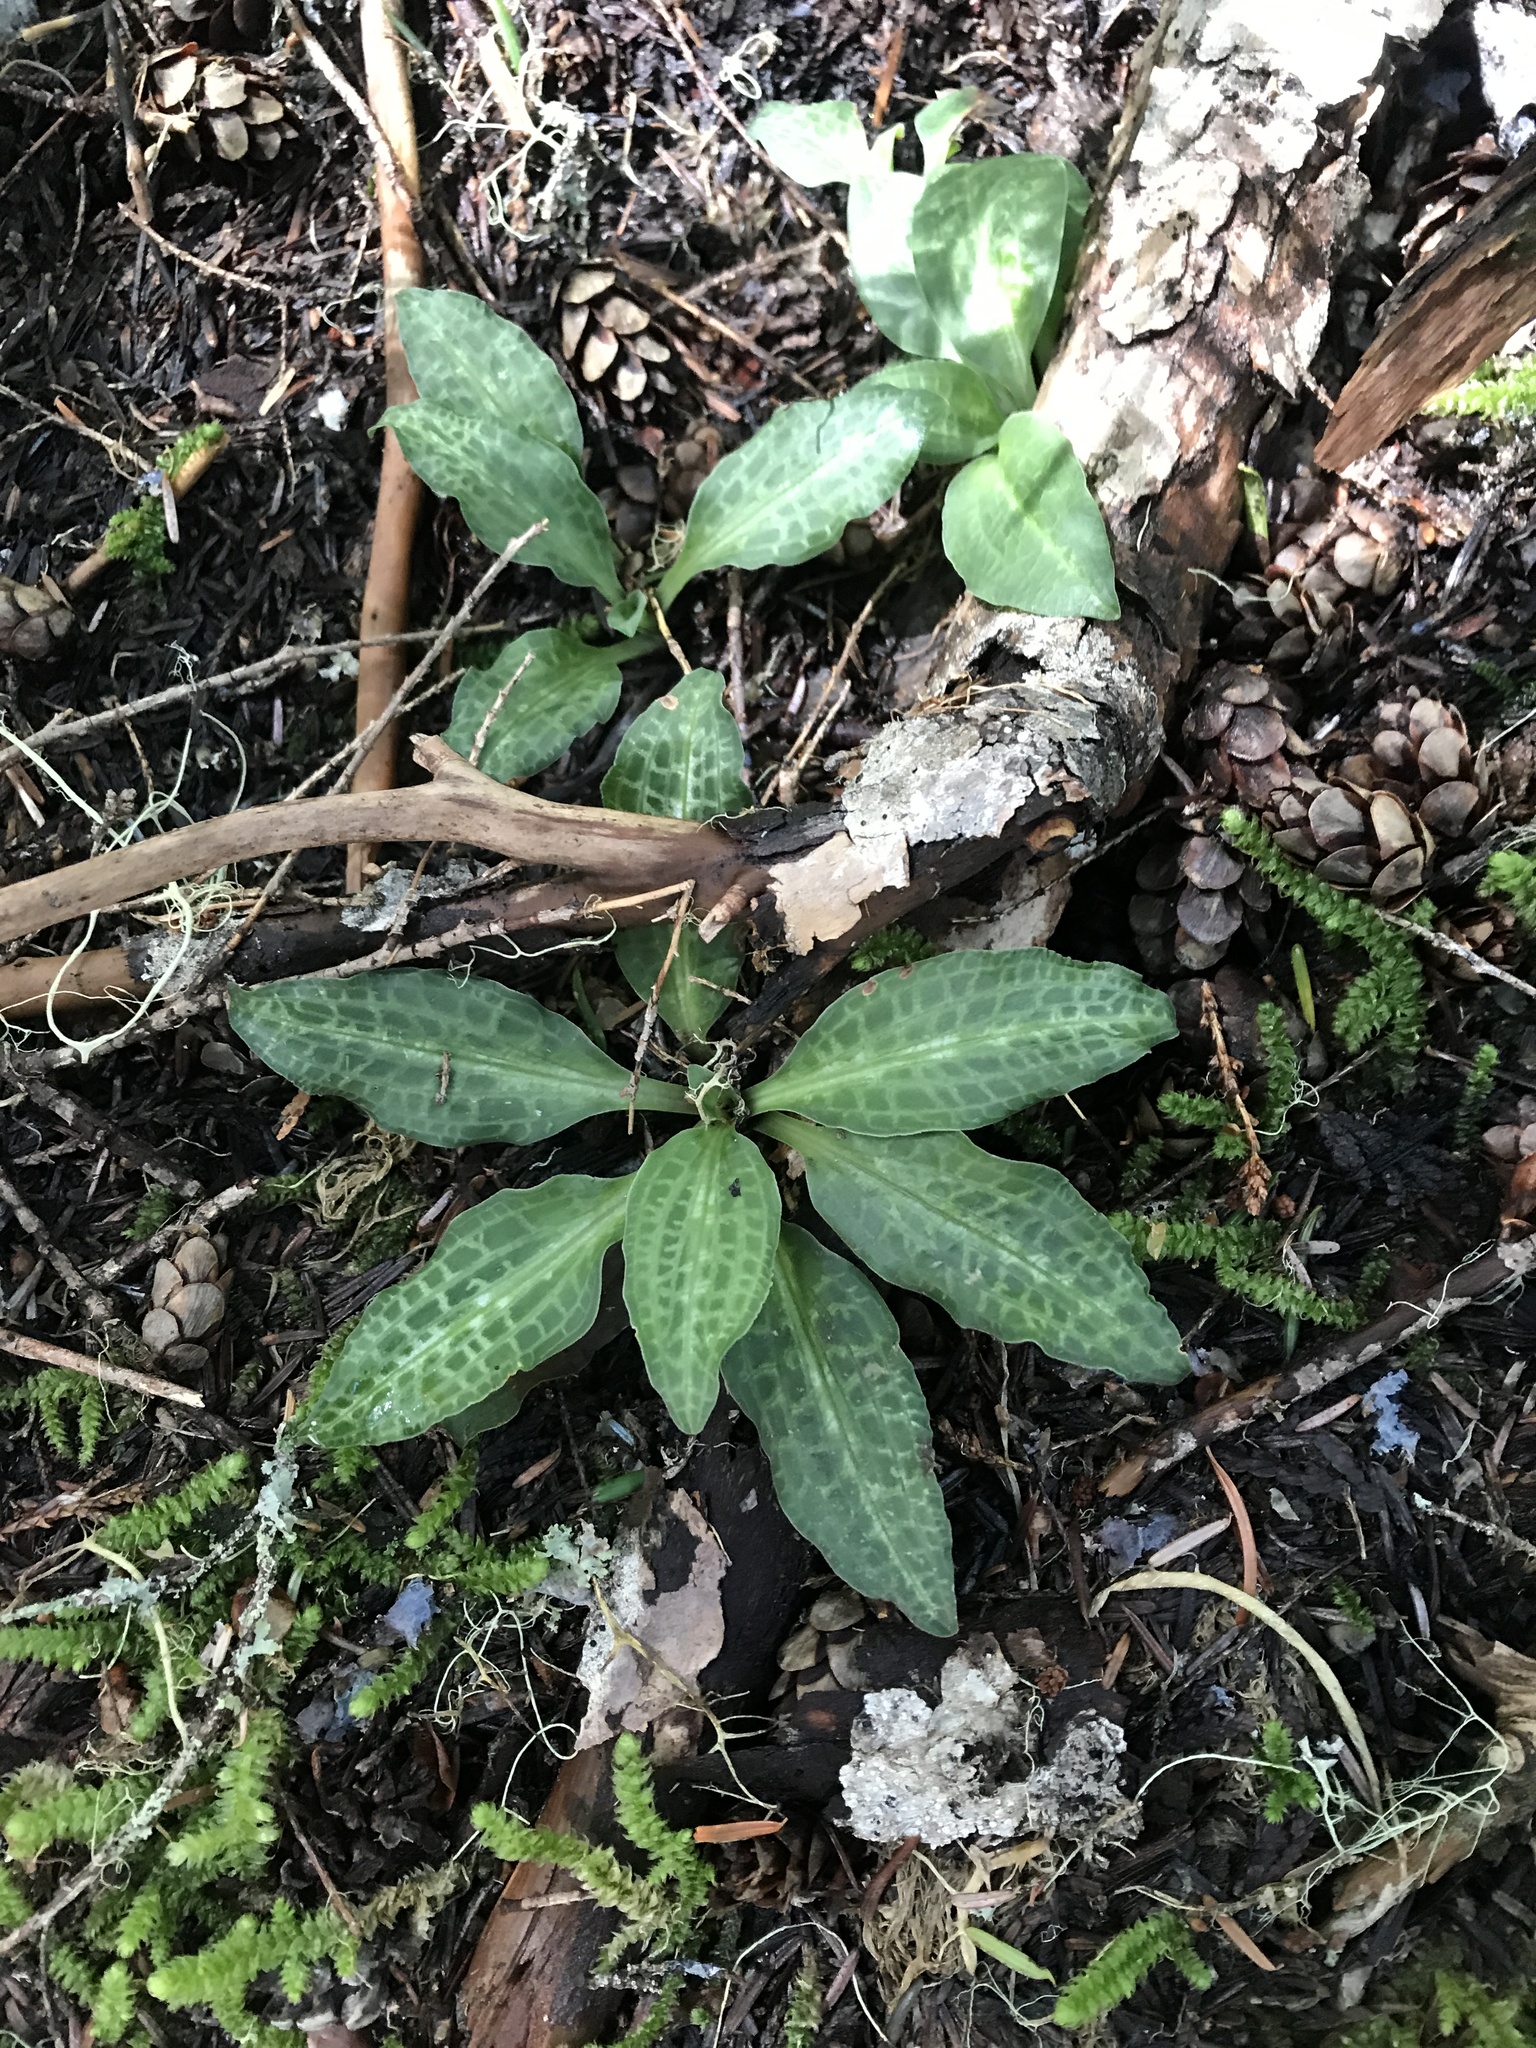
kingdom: Plantae
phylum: Tracheophyta
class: Liliopsida
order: Asparagales
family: Orchidaceae
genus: Goodyera
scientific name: Goodyera oblongifolia
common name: Giant rattlesnake-plantain
